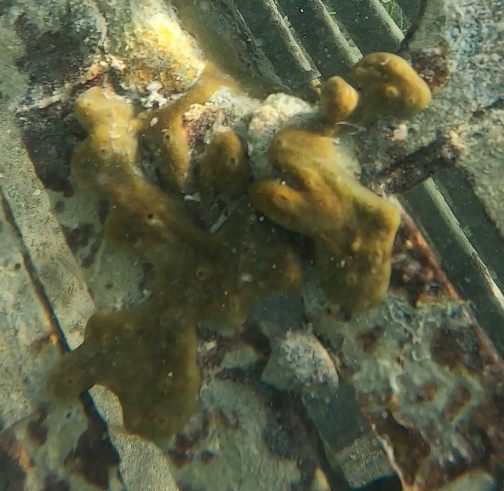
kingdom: Animalia
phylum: Porifera
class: Demospongiae
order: Chondrillida
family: Chondrillidae
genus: Chondrilla
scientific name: Chondrilla nucula
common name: Chicken liver sponge
